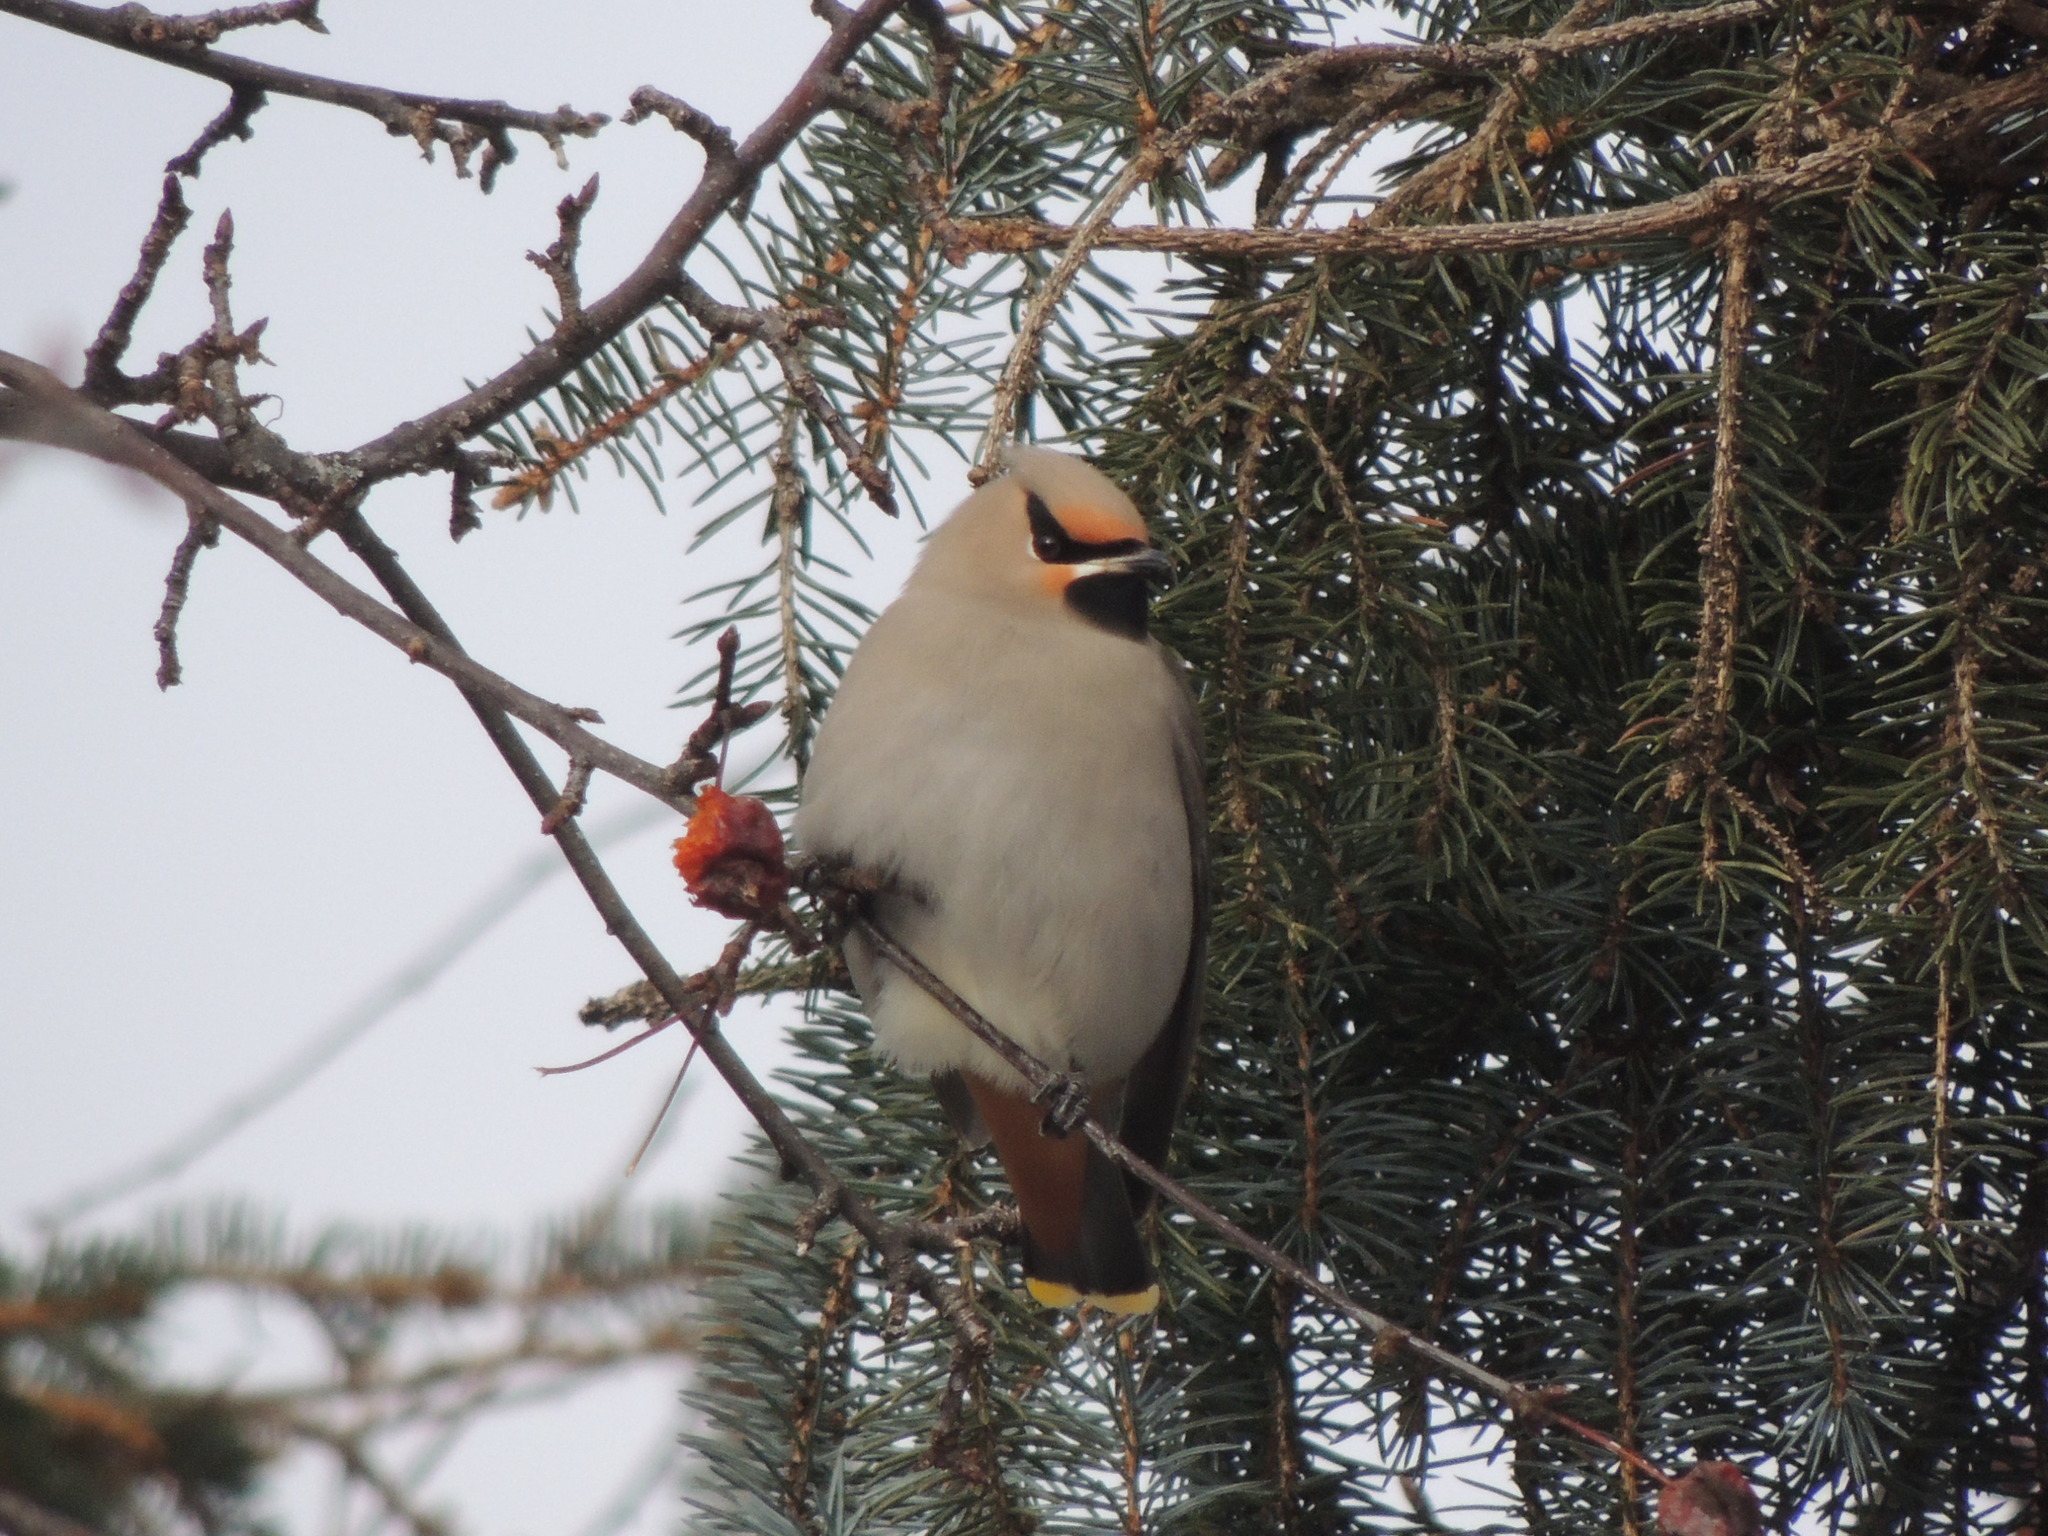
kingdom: Animalia
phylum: Chordata
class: Aves
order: Passeriformes
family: Bombycillidae
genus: Bombycilla
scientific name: Bombycilla garrulus
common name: Bohemian waxwing
